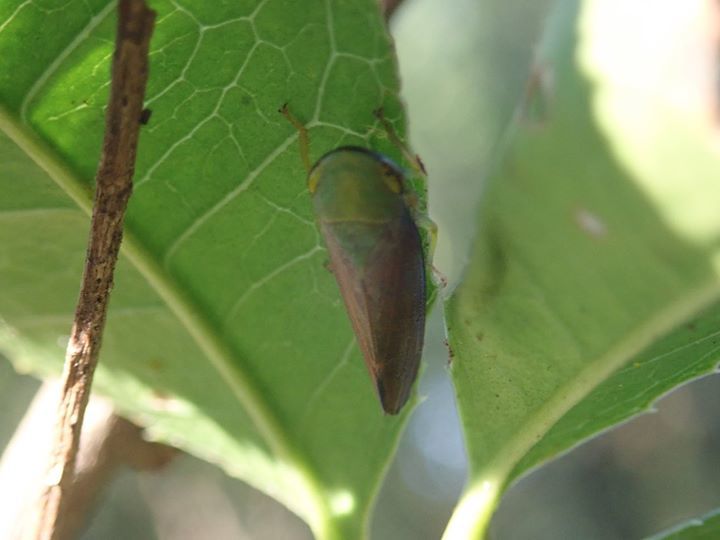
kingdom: Animalia
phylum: Arthropoda
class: Insecta
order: Hemiptera
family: Cicadellidae
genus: Tartessus
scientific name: Tartessus ferrugineus
